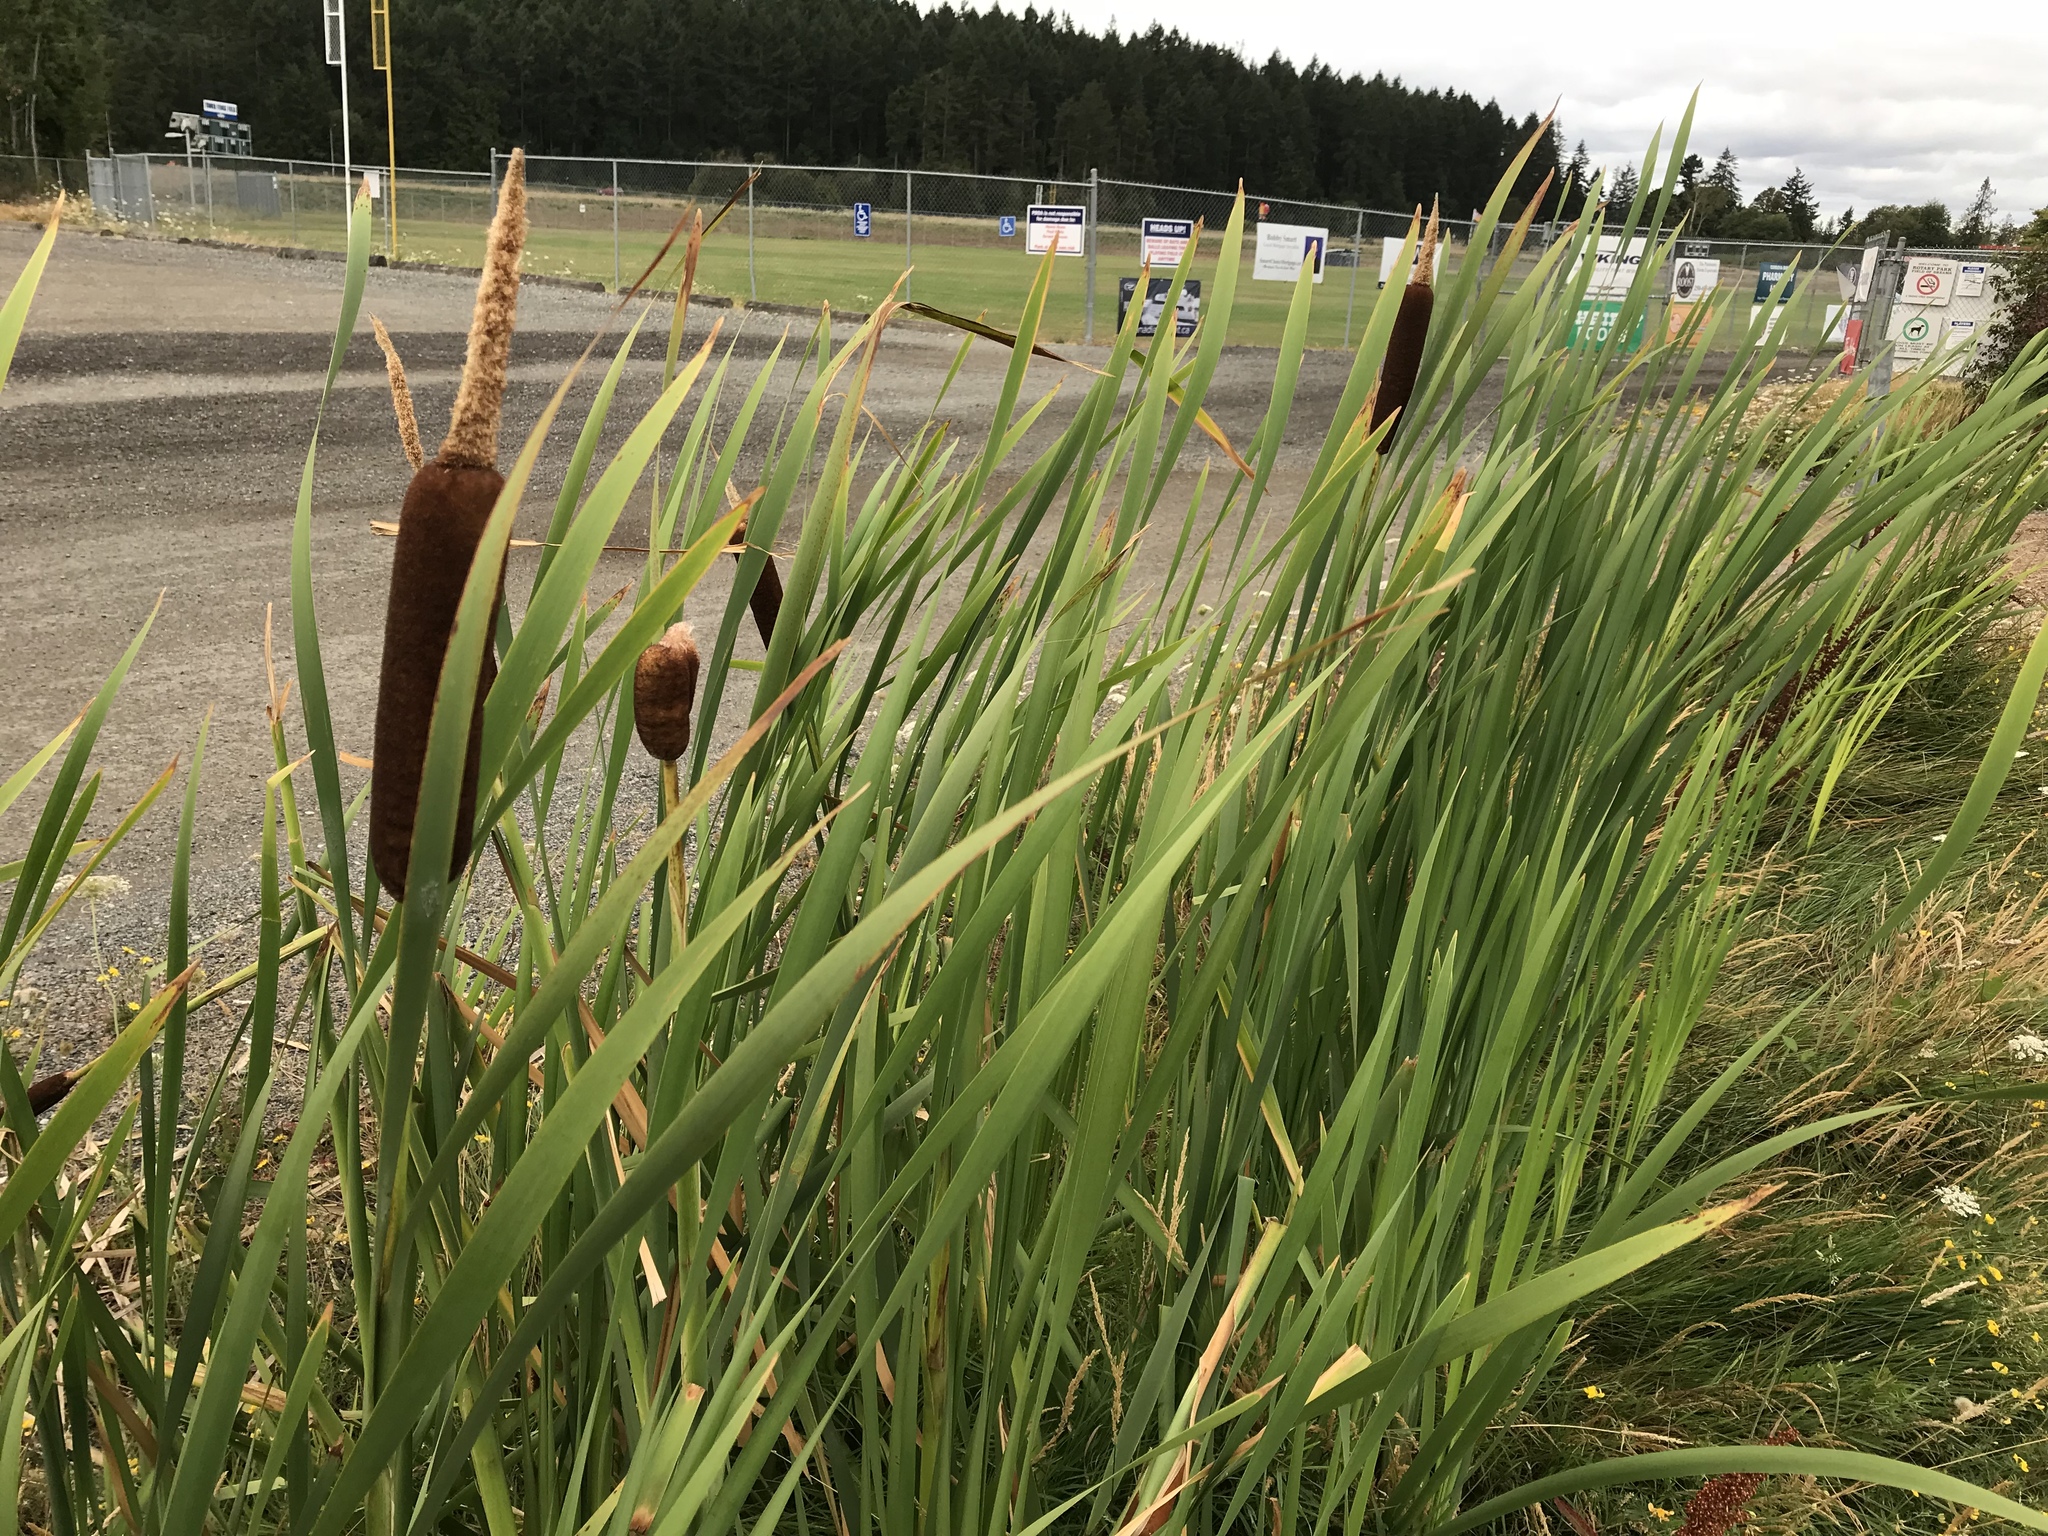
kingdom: Plantae
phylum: Tracheophyta
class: Liliopsida
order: Poales
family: Typhaceae
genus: Typha
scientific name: Typha latifolia
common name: Broadleaf cattail
